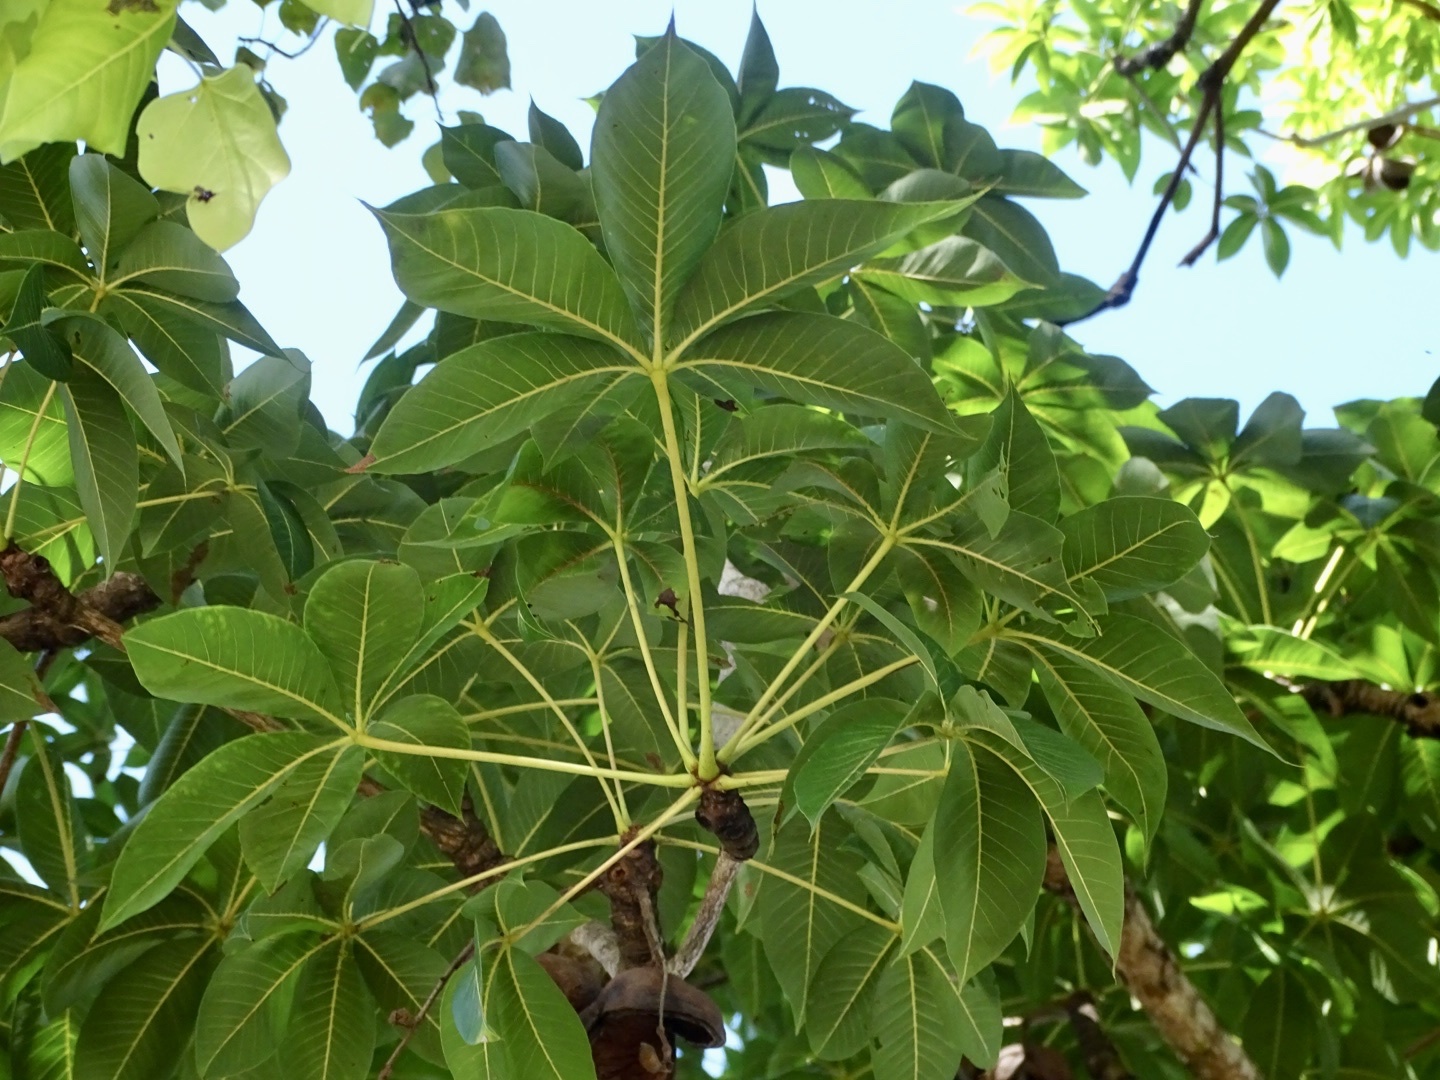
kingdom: Plantae
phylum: Tracheophyta
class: Magnoliopsida
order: Malvales
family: Malvaceae
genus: Sterculia
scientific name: Sterculia foetida
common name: Hazel sterculia
